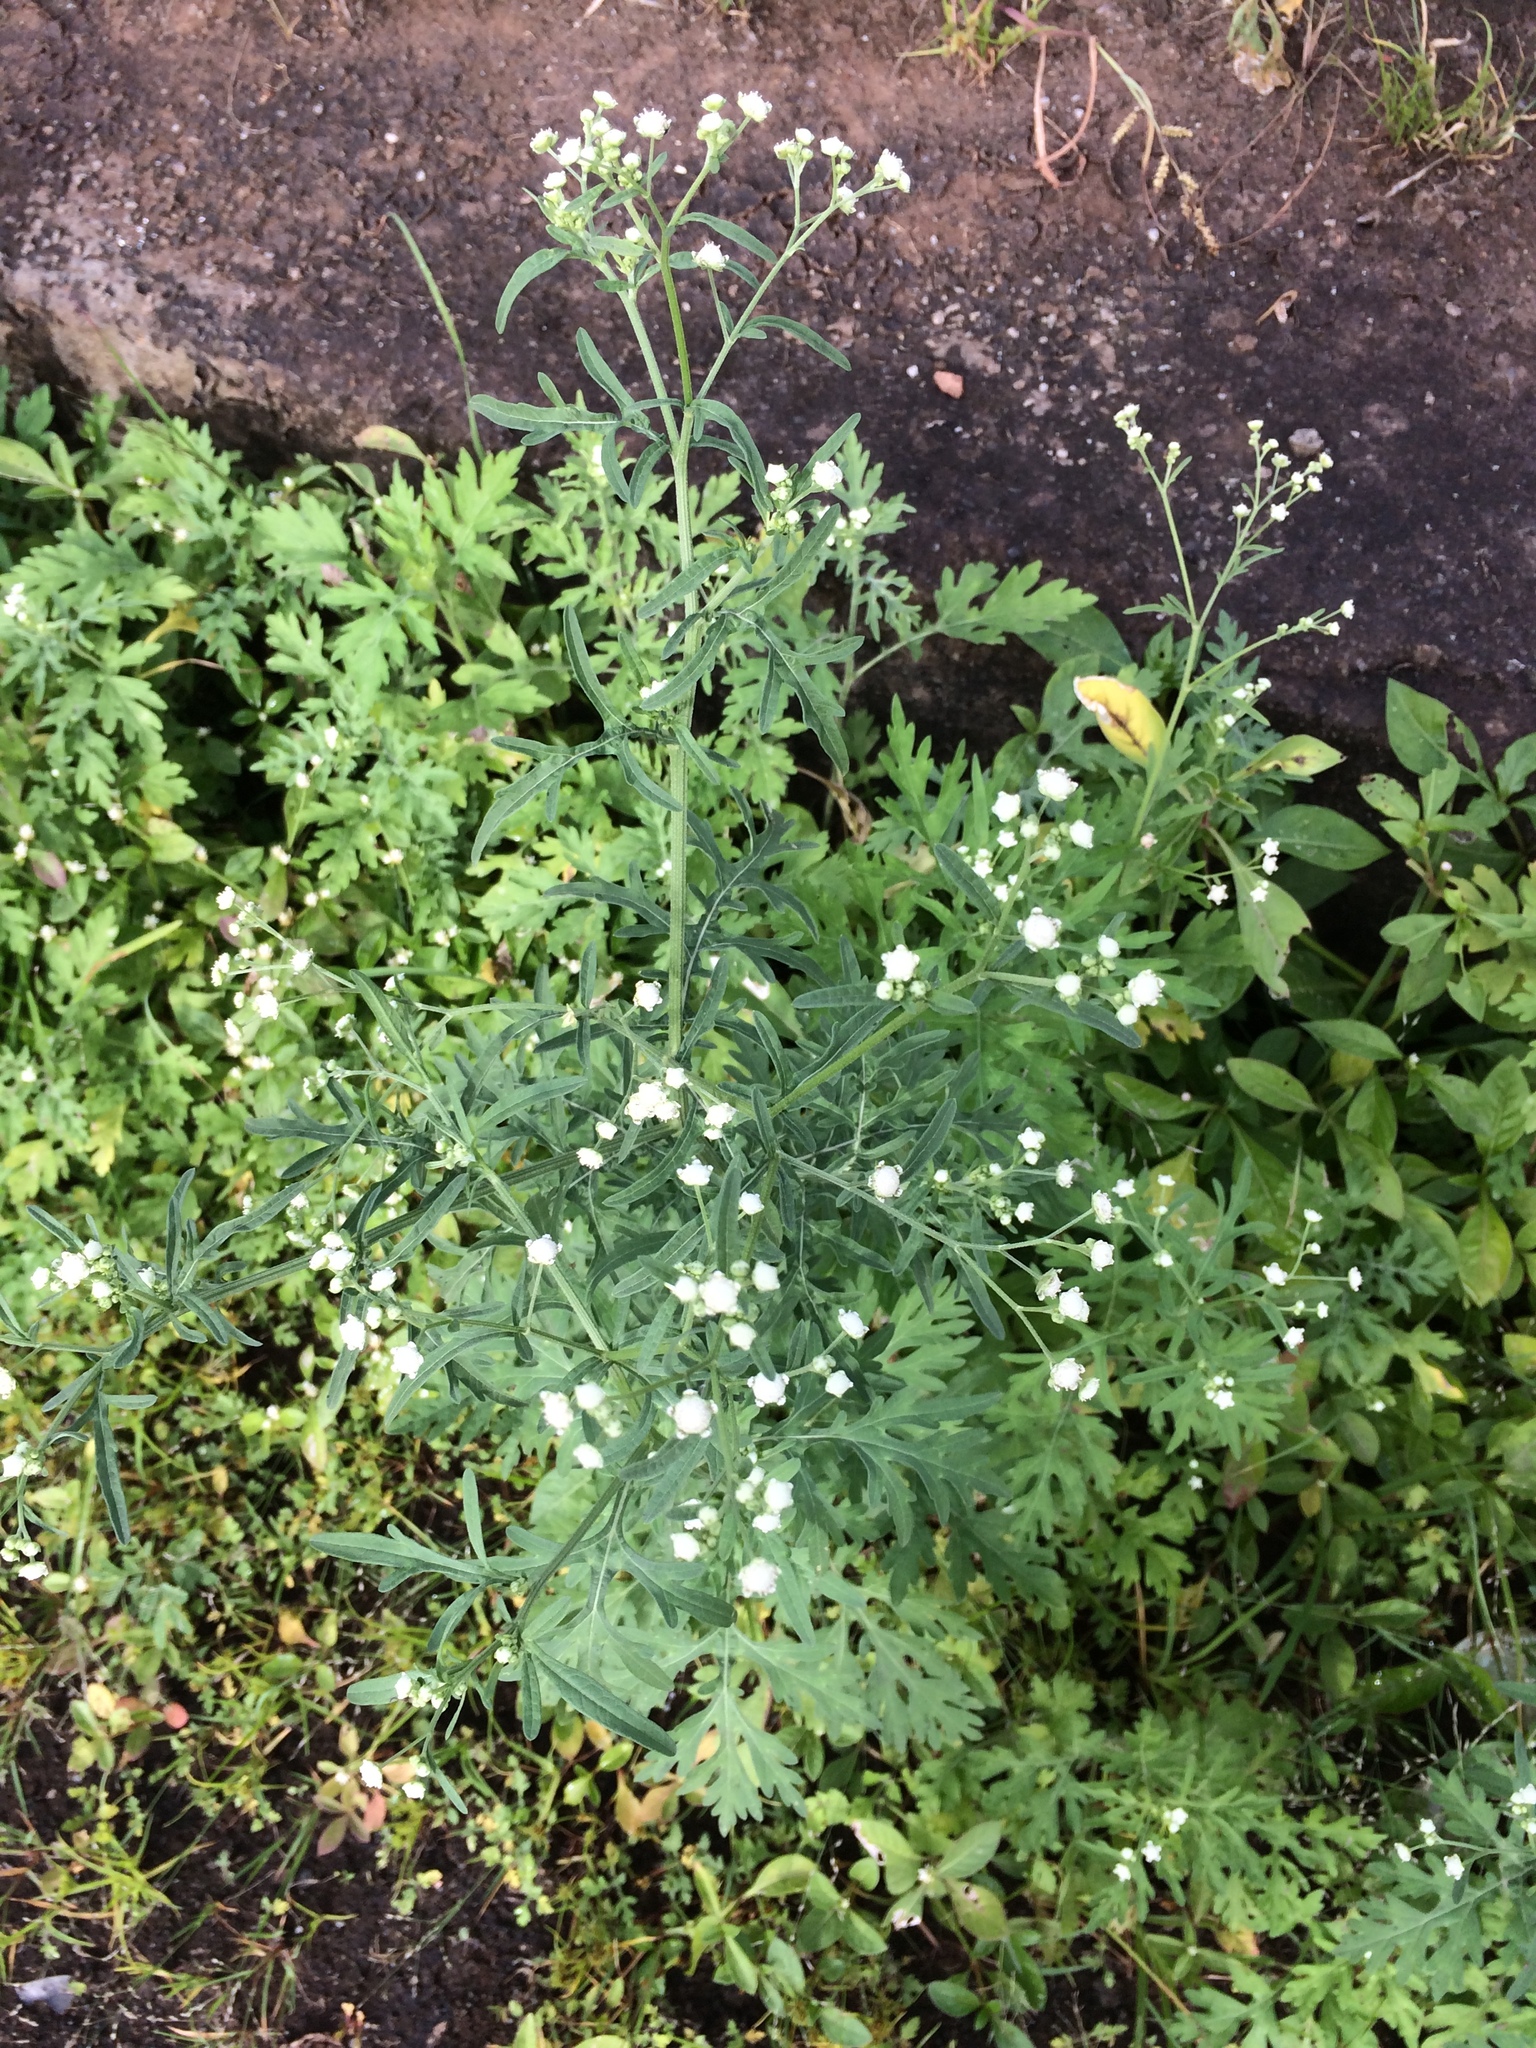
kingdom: Plantae
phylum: Tracheophyta
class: Magnoliopsida
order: Asterales
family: Asteraceae
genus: Parthenium
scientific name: Parthenium hysterophorus
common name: Santa maria feverfew
